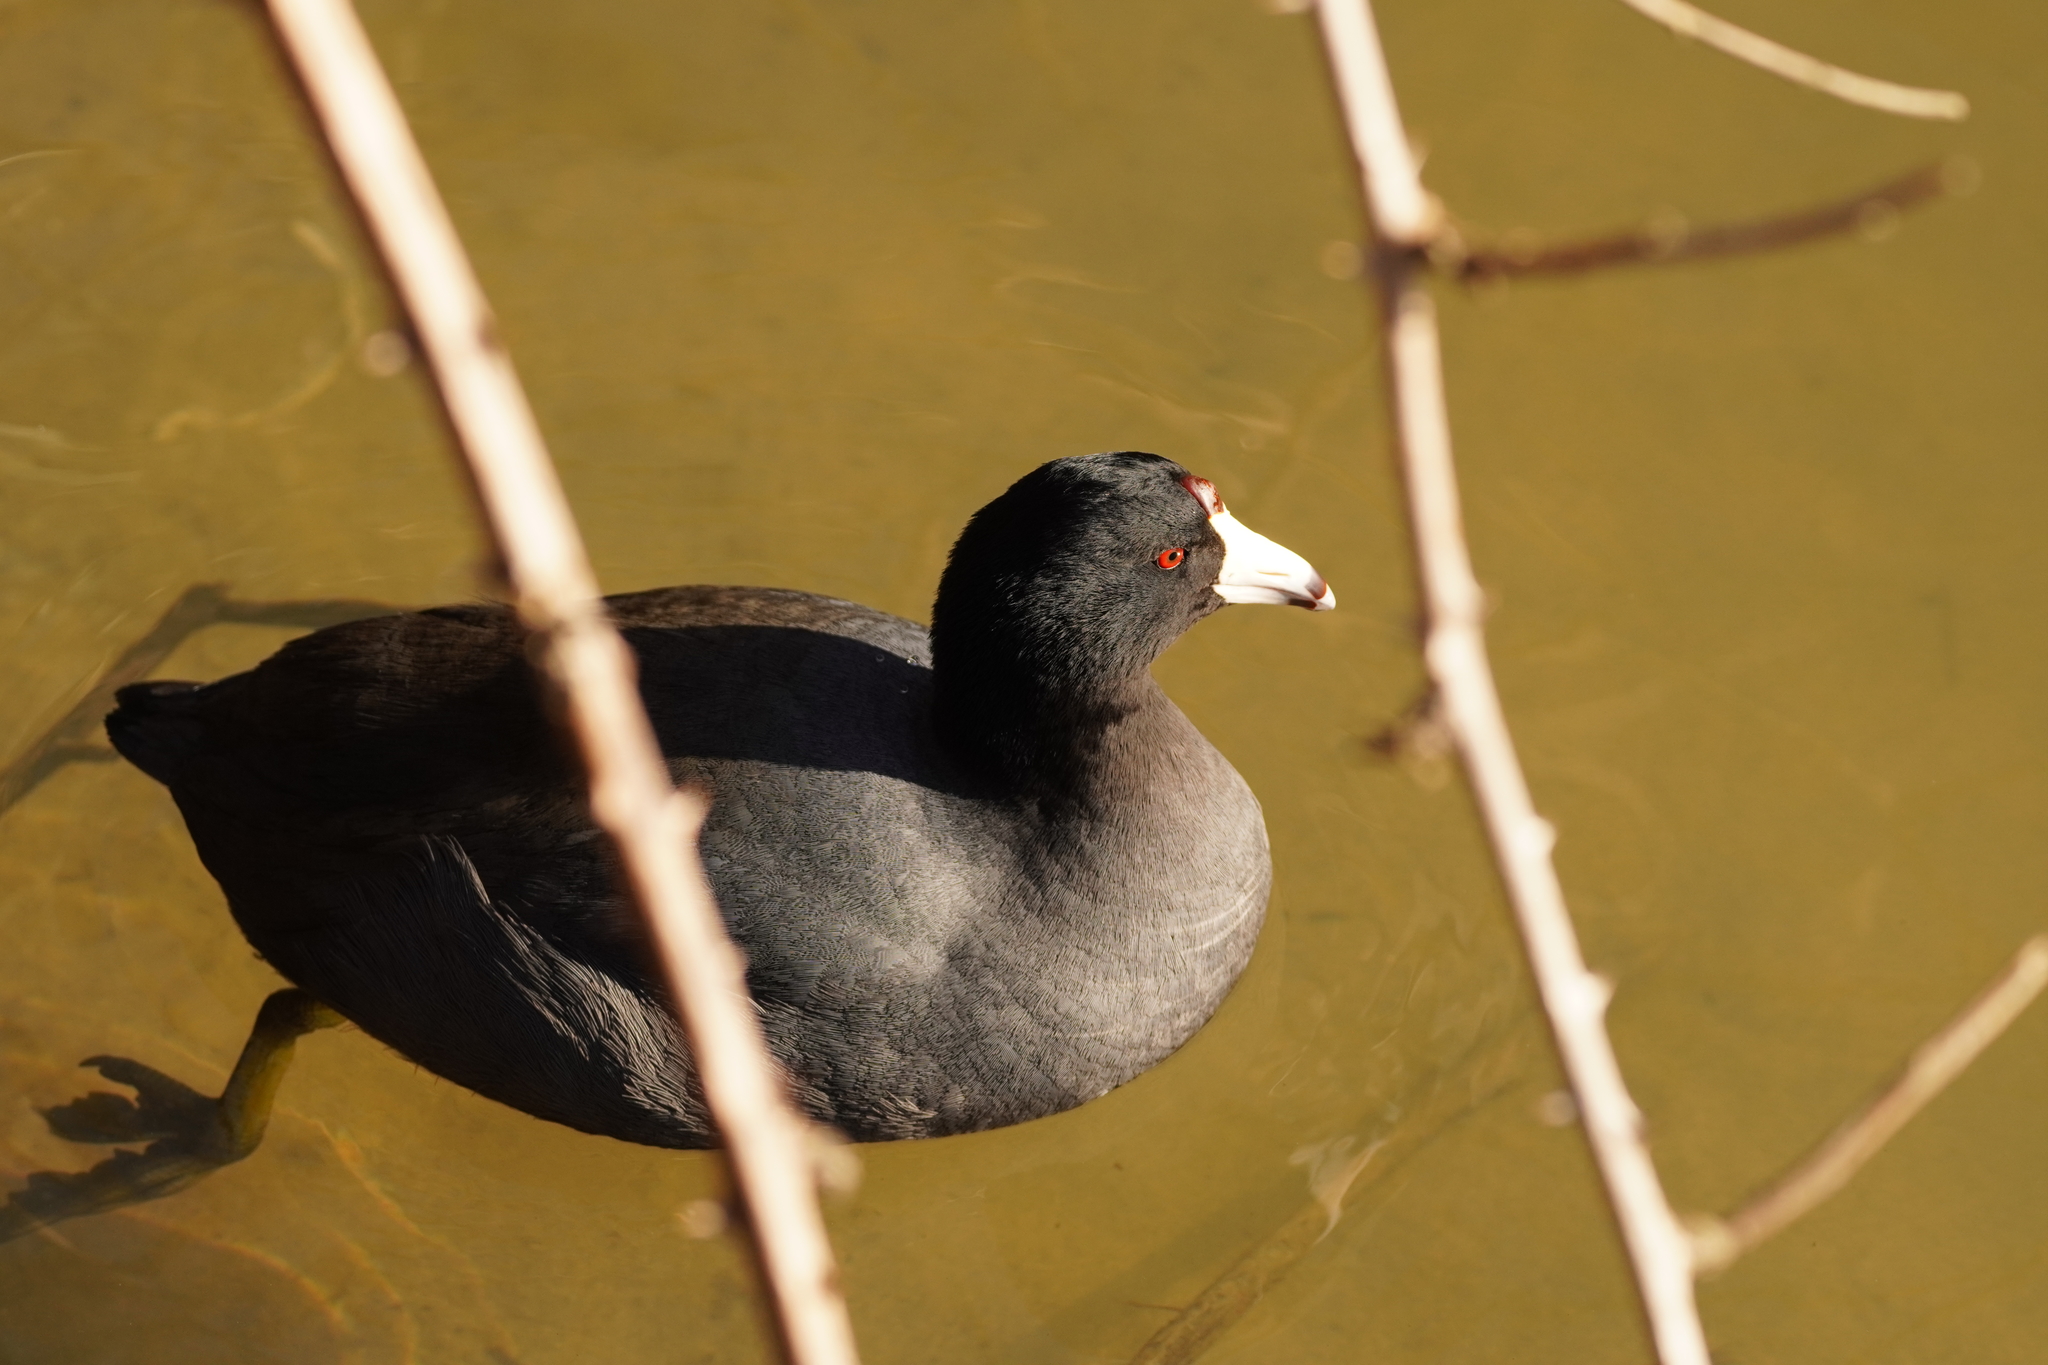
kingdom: Animalia
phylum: Chordata
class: Aves
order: Gruiformes
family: Rallidae
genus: Fulica
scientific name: Fulica americana
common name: American coot
